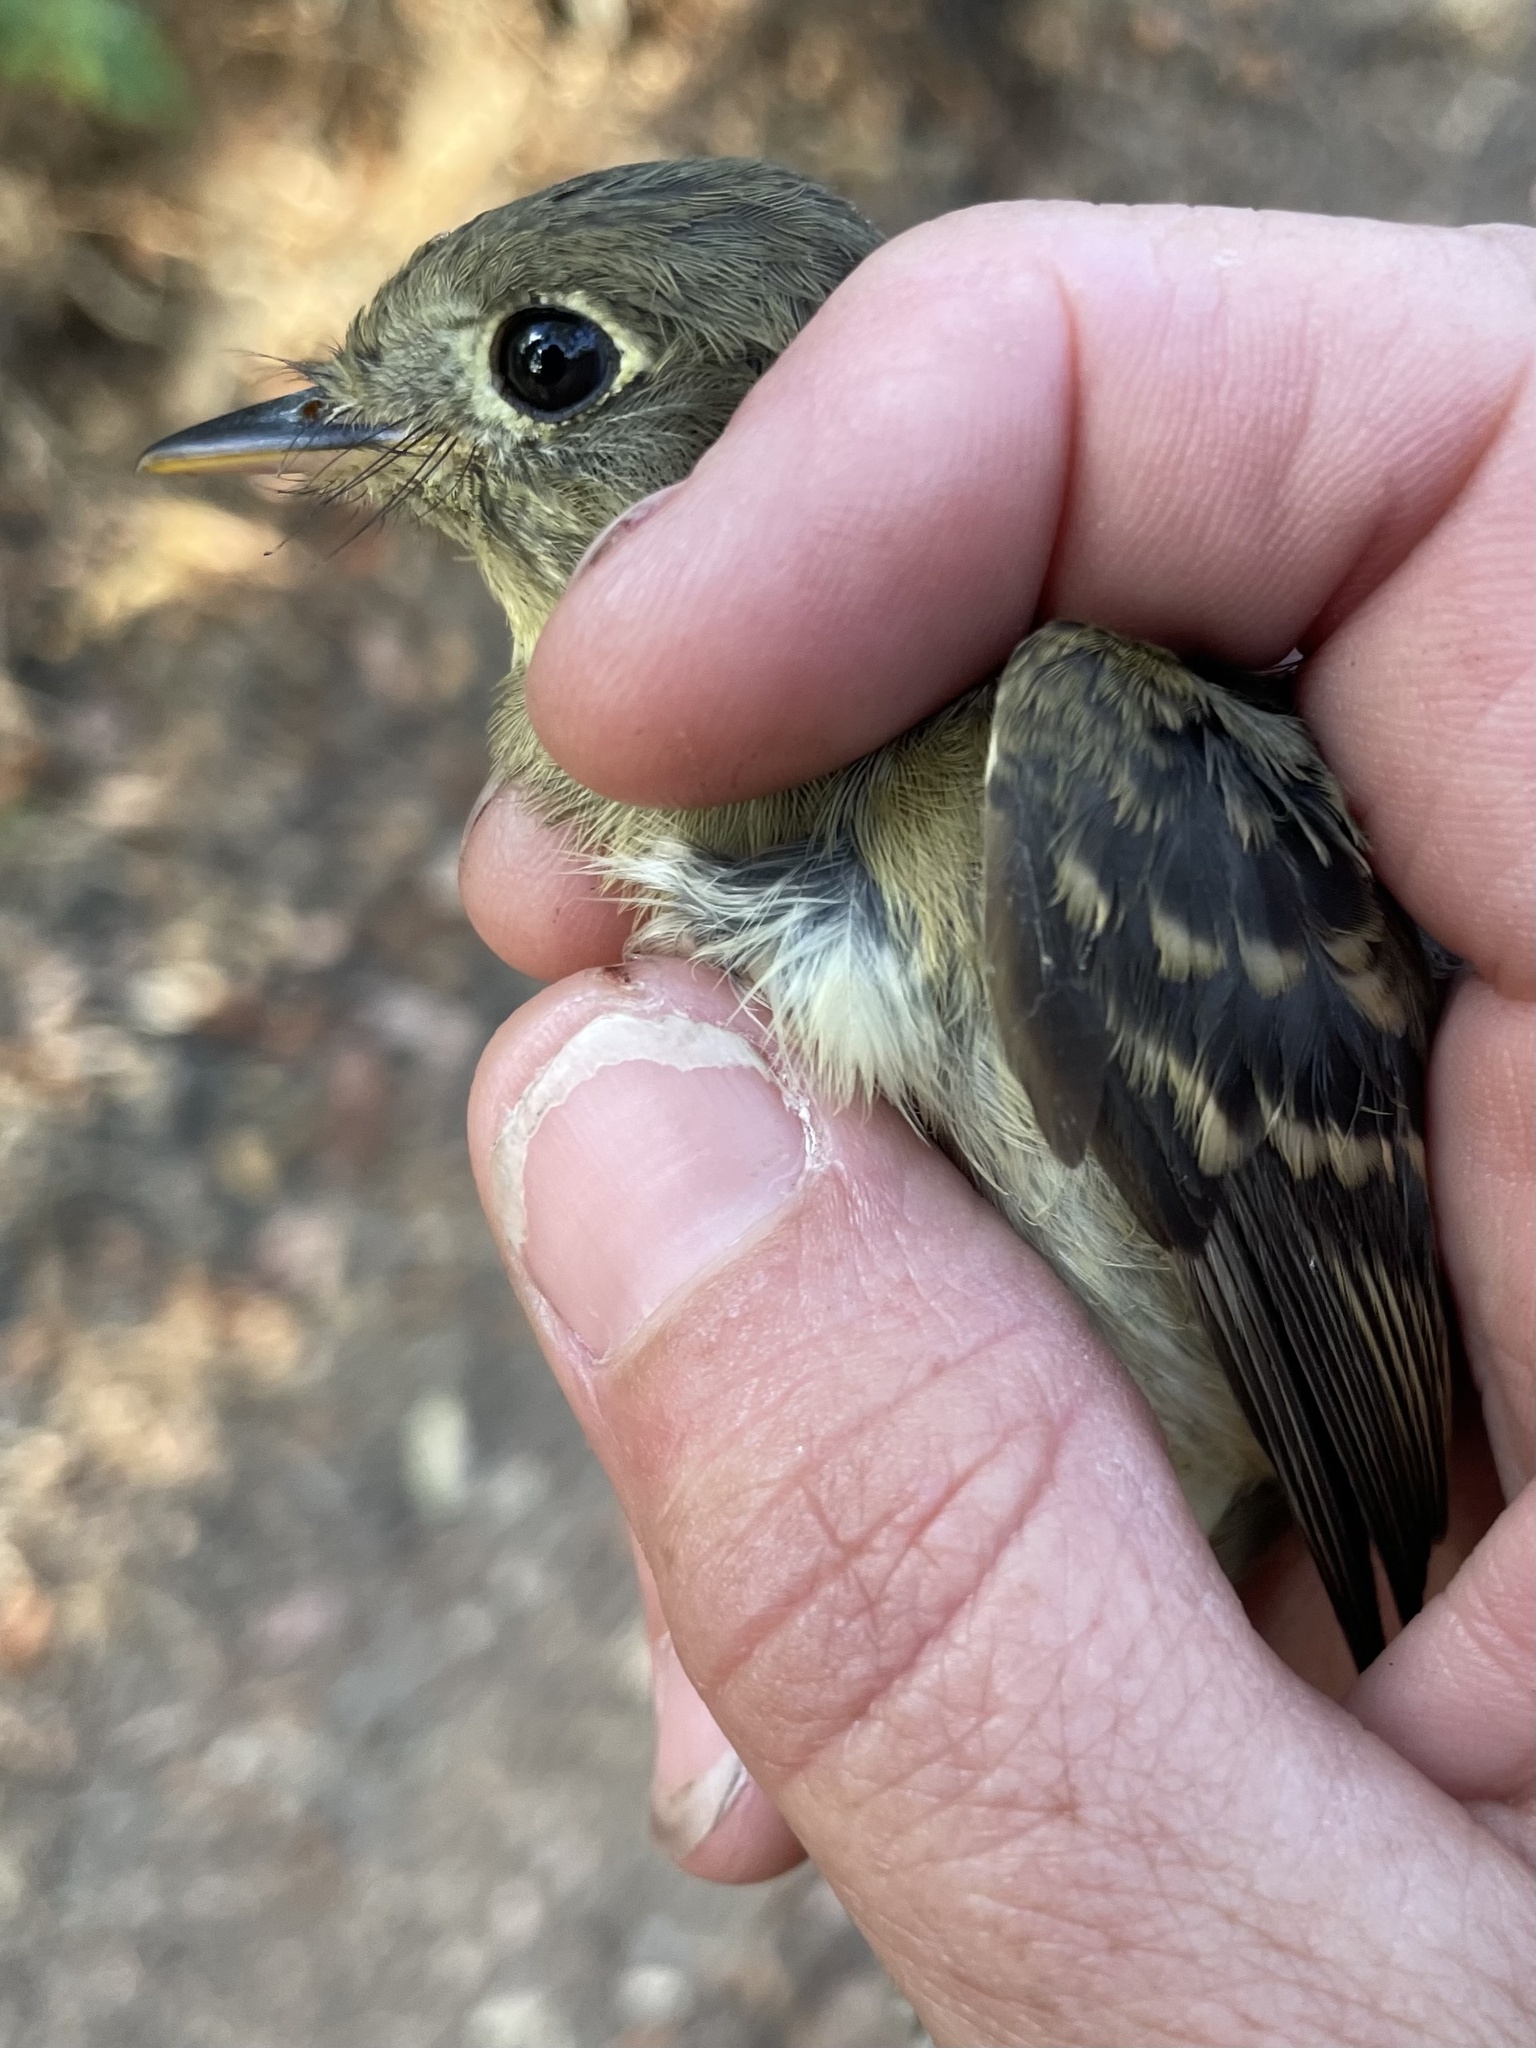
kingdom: Animalia
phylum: Chordata
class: Aves
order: Passeriformes
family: Tyrannidae
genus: Empidonax
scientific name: Empidonax difficilis
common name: Pacific-slope flycatcher
